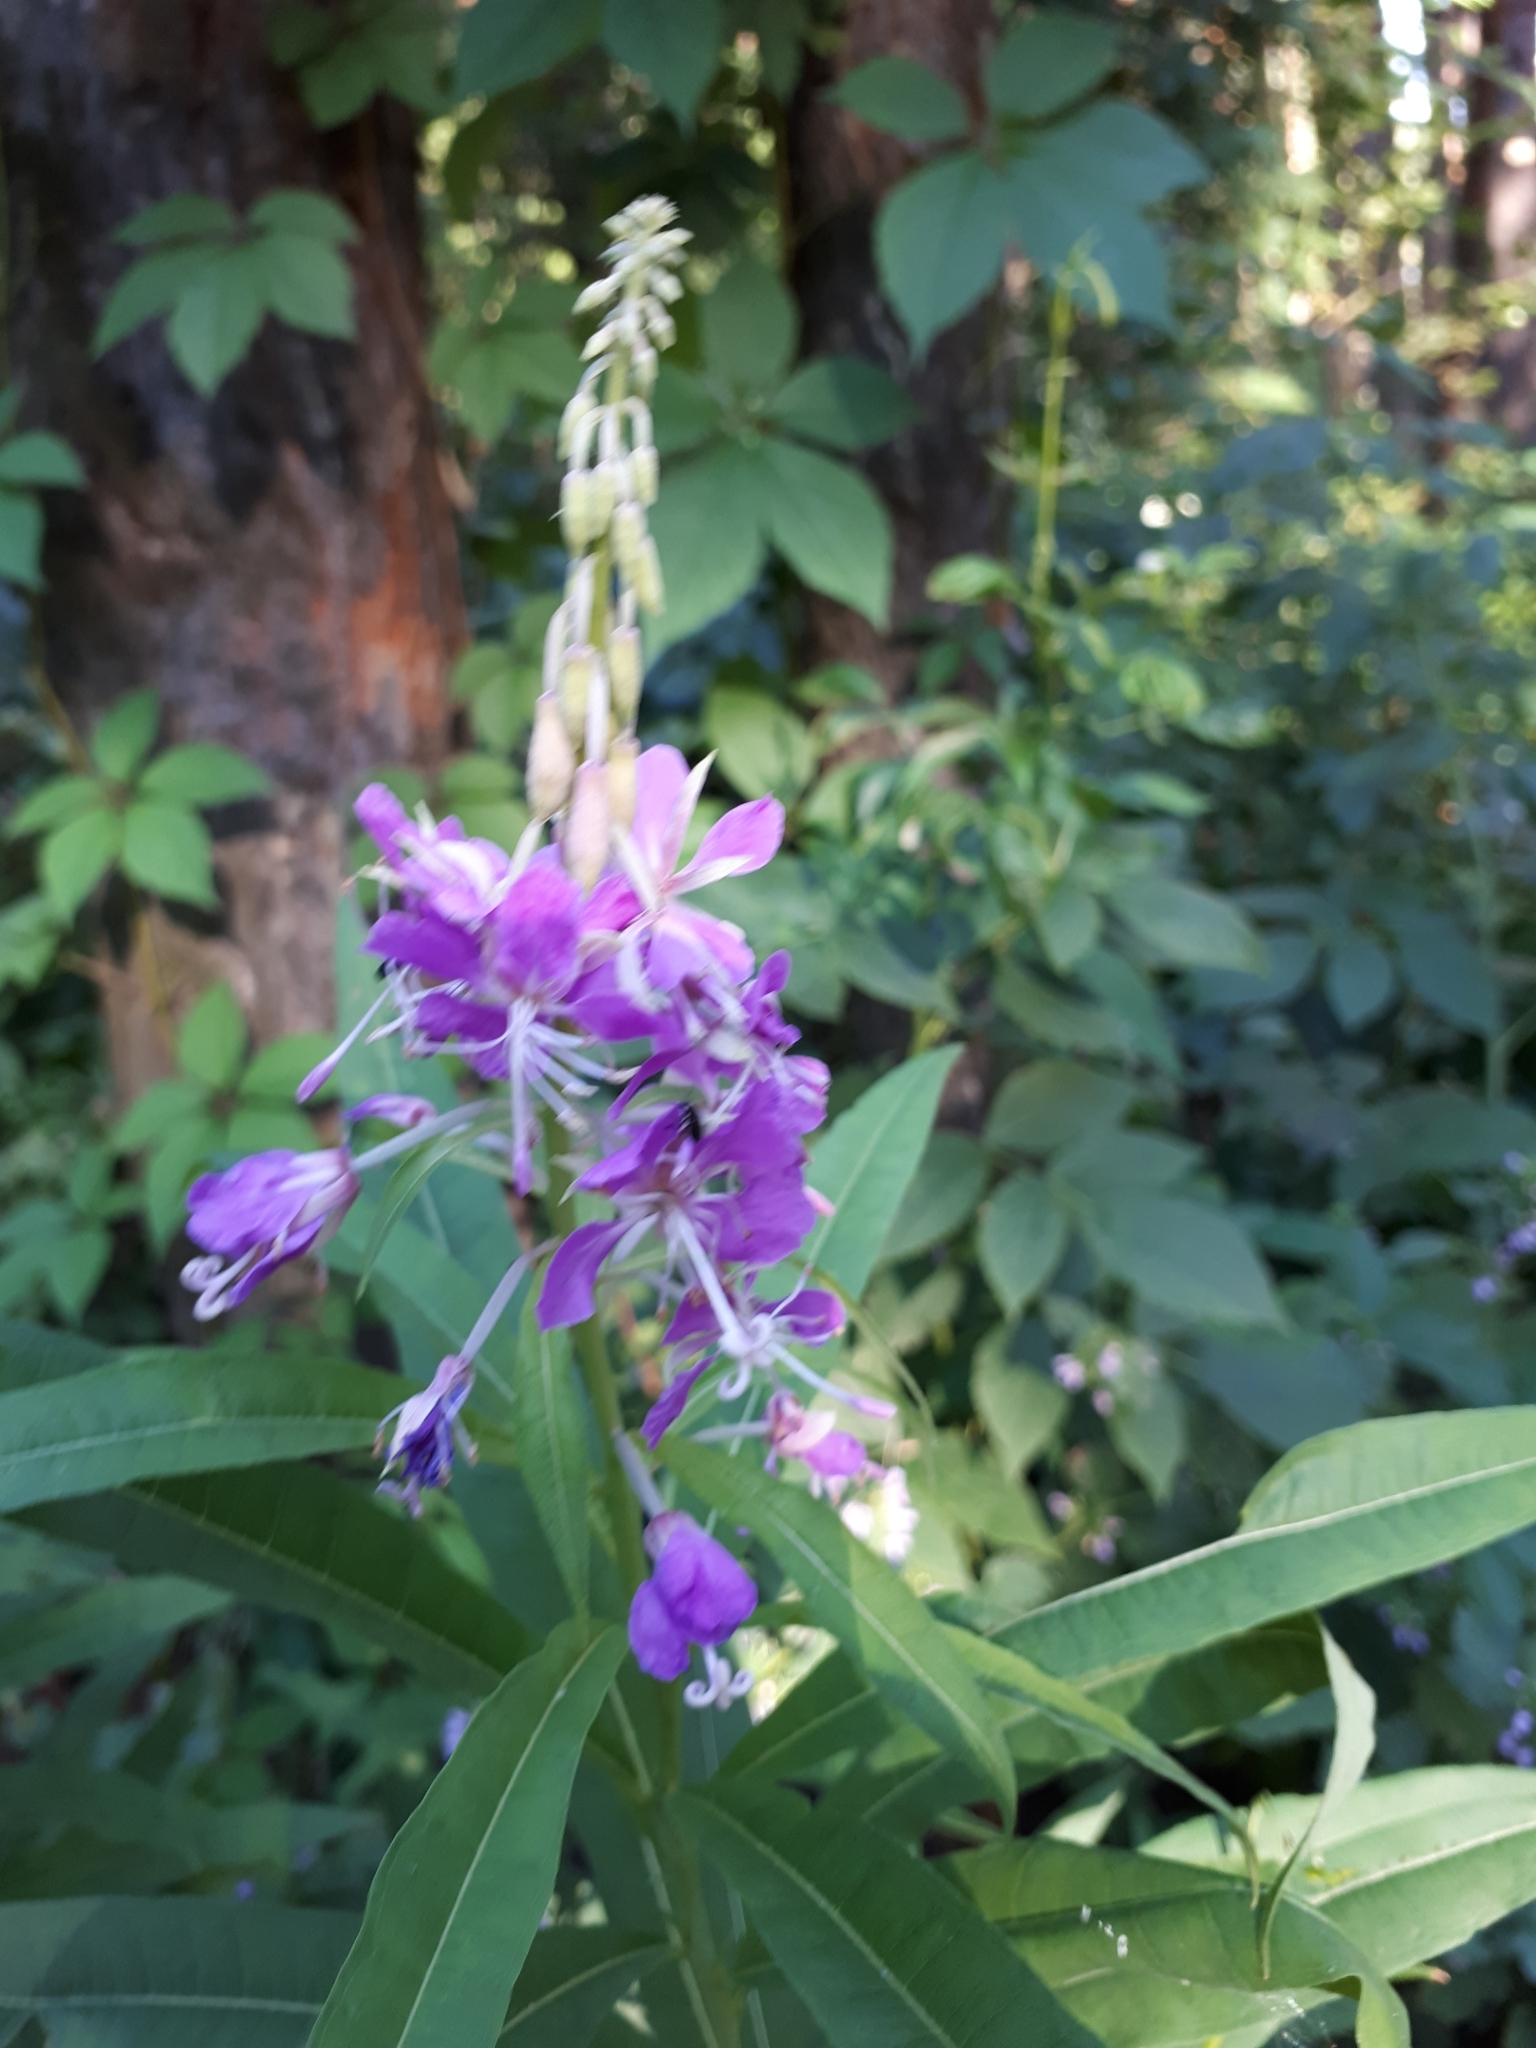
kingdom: Plantae
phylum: Tracheophyta
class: Magnoliopsida
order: Myrtales
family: Onagraceae
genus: Chamaenerion
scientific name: Chamaenerion angustifolium
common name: Fireweed
